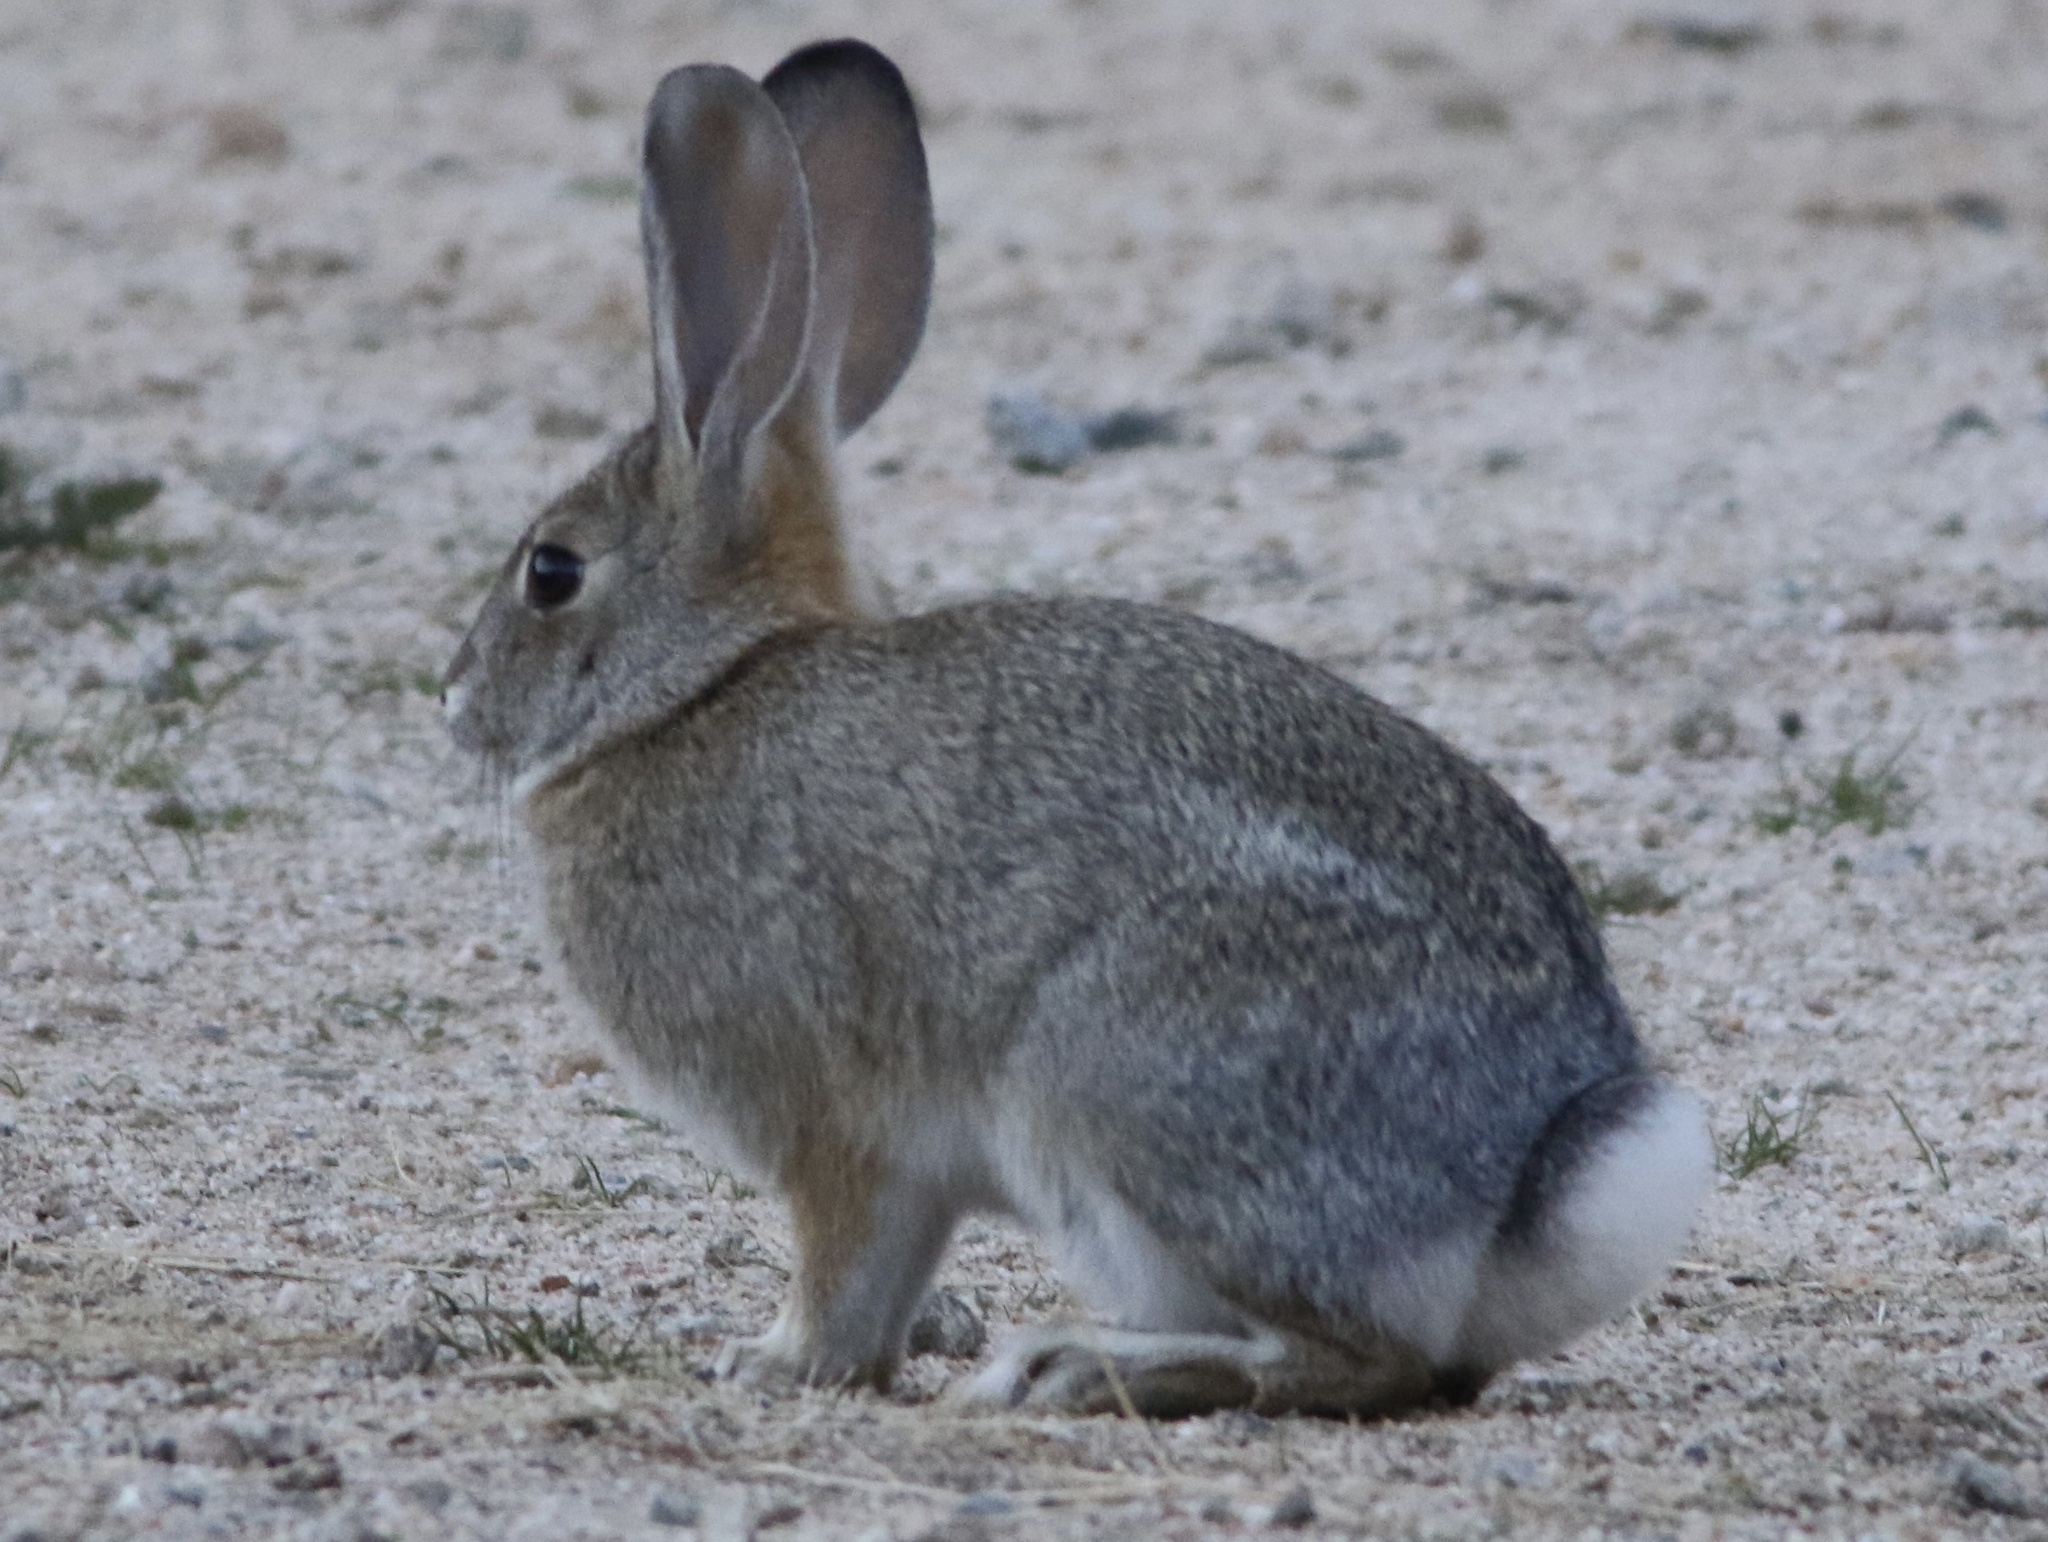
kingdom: Animalia
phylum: Chordata
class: Mammalia
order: Lagomorpha
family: Leporidae
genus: Sylvilagus
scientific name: Sylvilagus audubonii
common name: Desert cottontail
